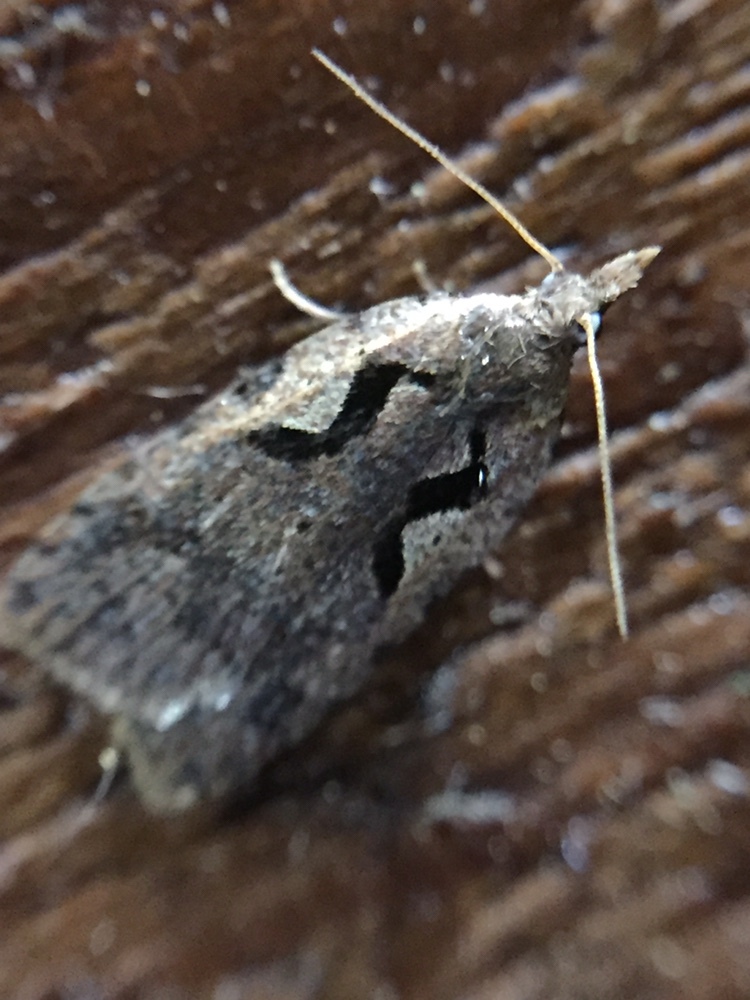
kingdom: Animalia
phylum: Arthropoda
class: Insecta
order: Lepidoptera
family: Tortricidae
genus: Cnephasia
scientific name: Cnephasia jactatana
